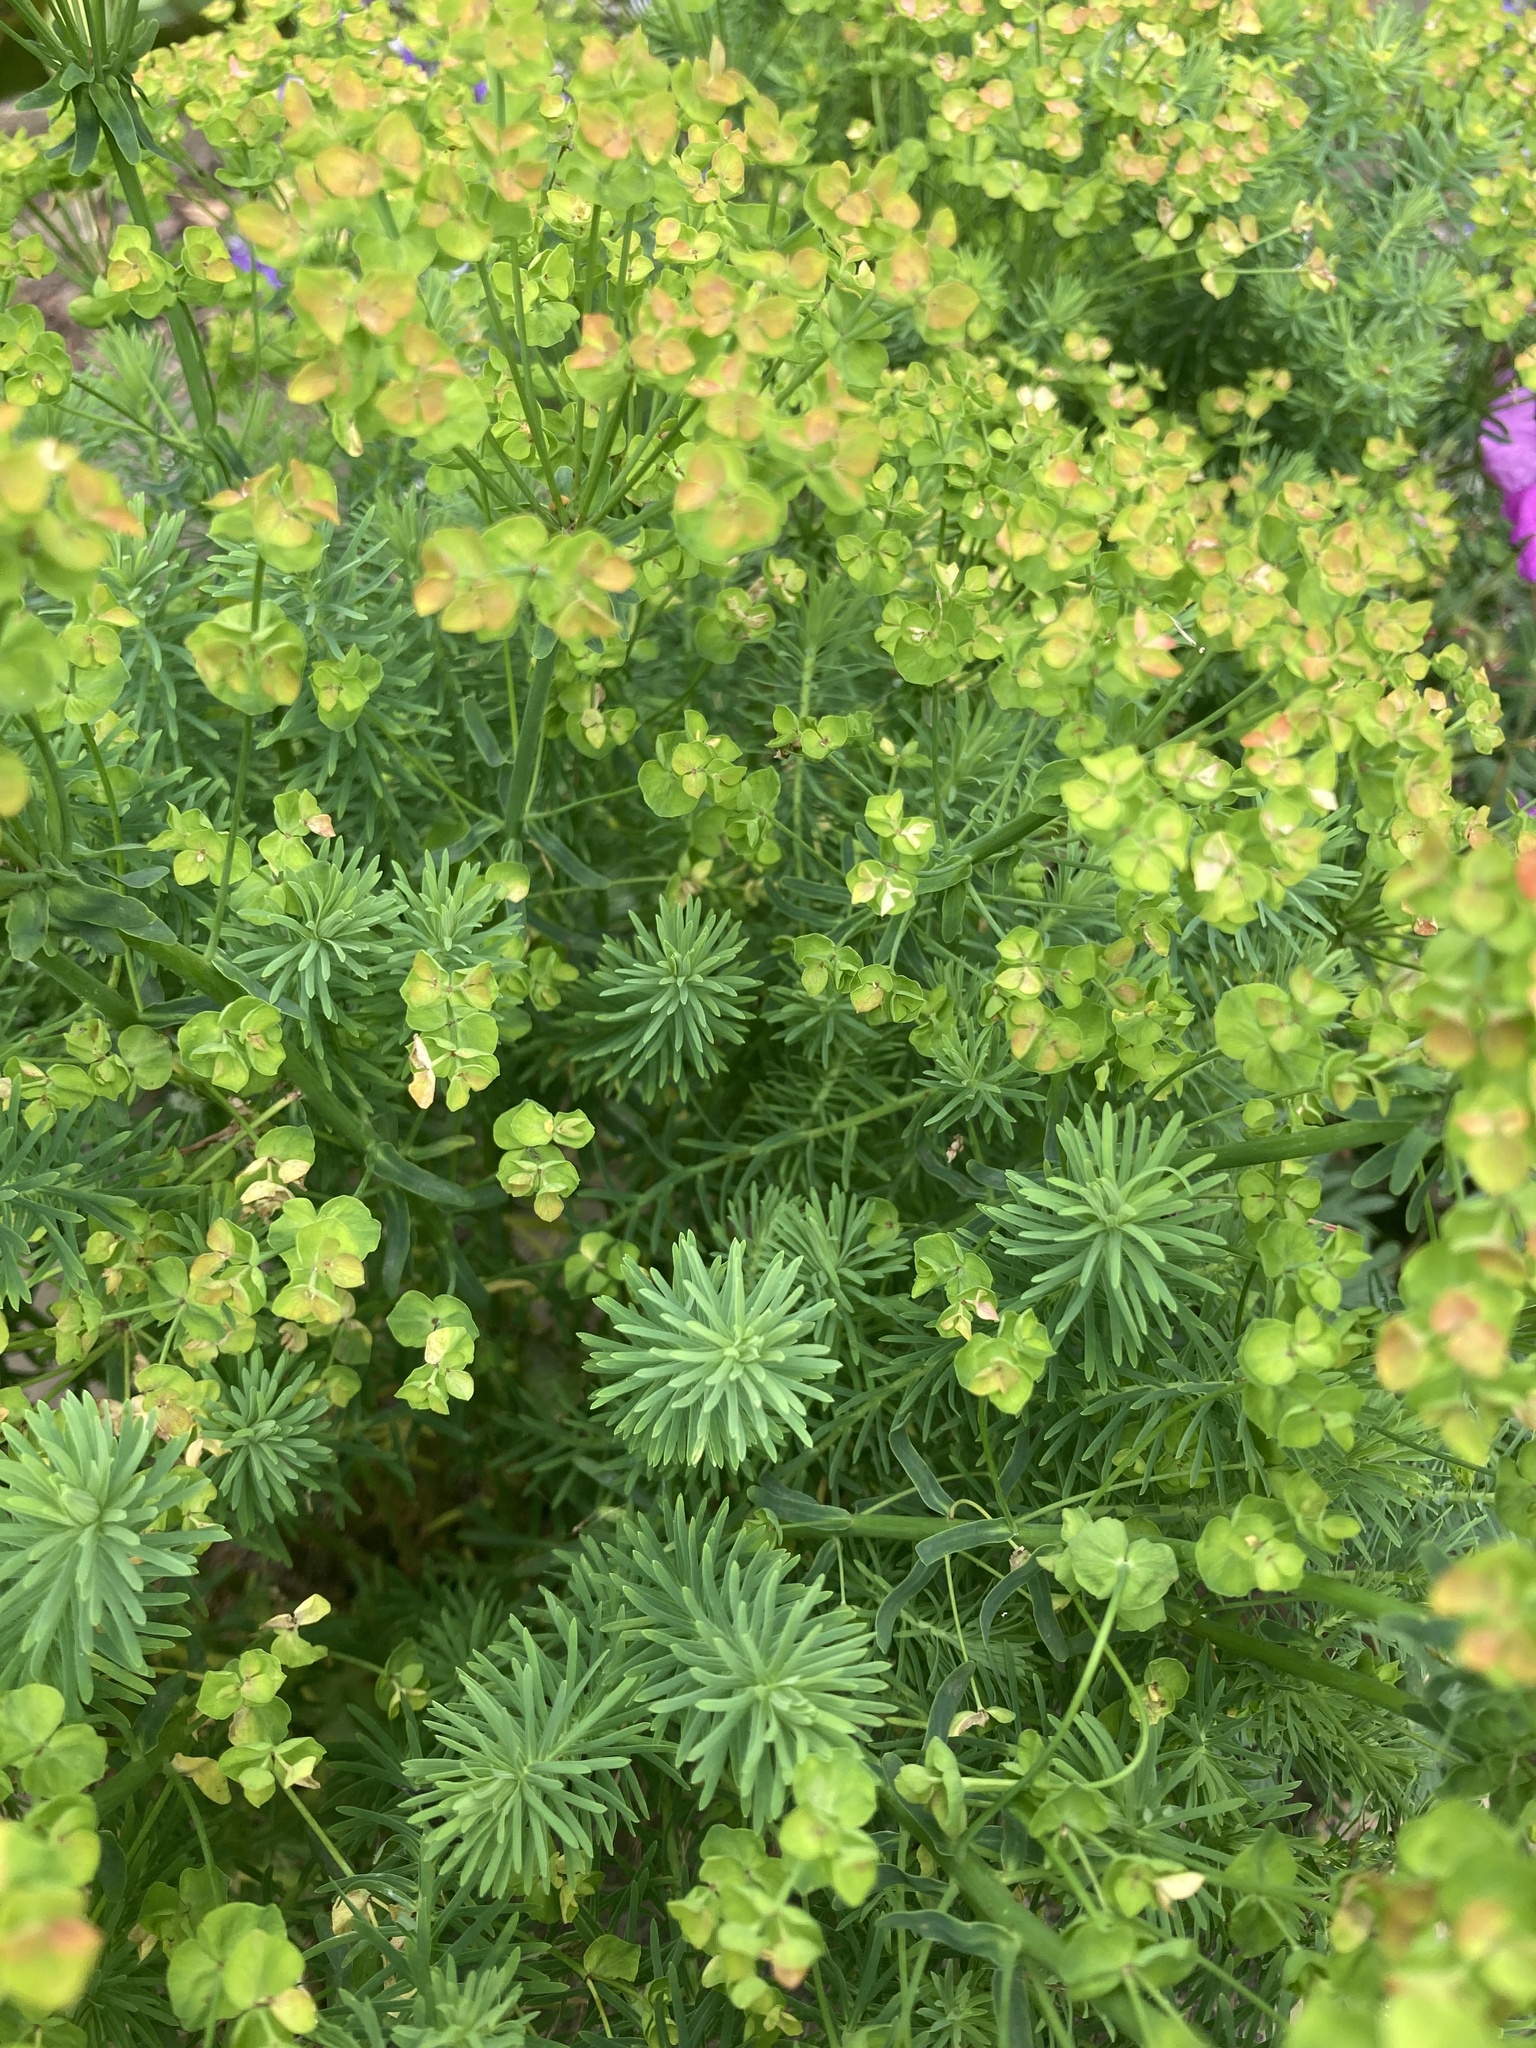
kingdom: Plantae
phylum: Tracheophyta
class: Magnoliopsida
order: Malpighiales
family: Euphorbiaceae
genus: Euphorbia
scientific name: Euphorbia cyparissias
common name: Cypress spurge
